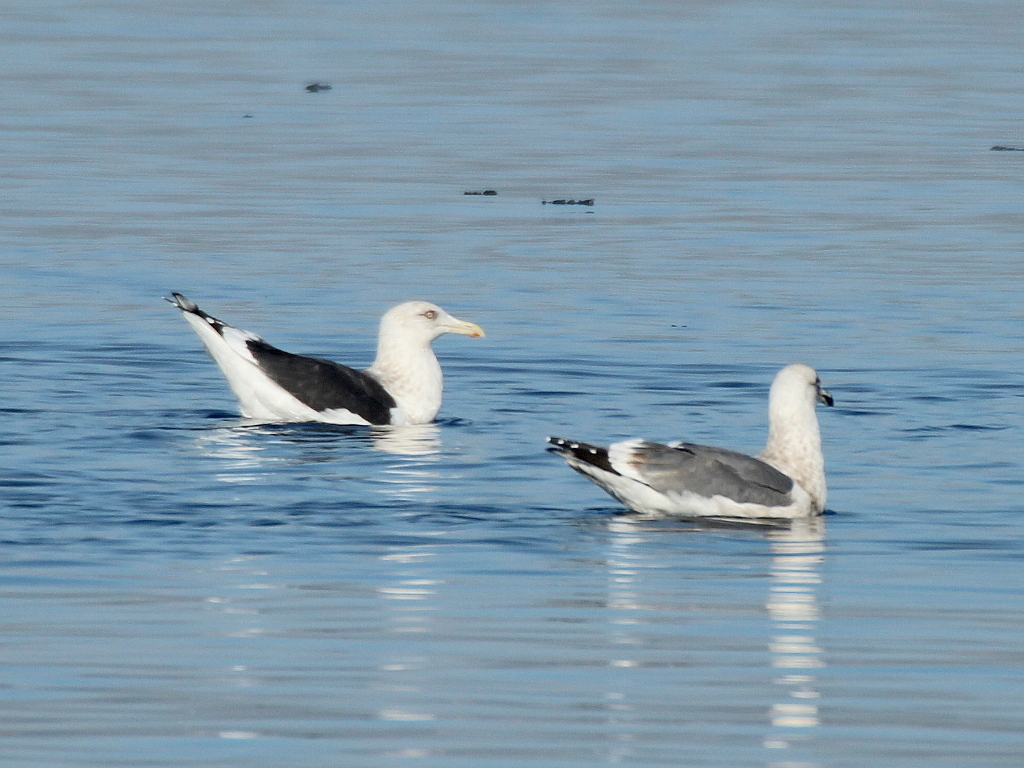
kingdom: Animalia
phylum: Chordata
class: Aves
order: Charadriiformes
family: Laridae
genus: Larus
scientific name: Larus schistisagus
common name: Slaty-backed gull
